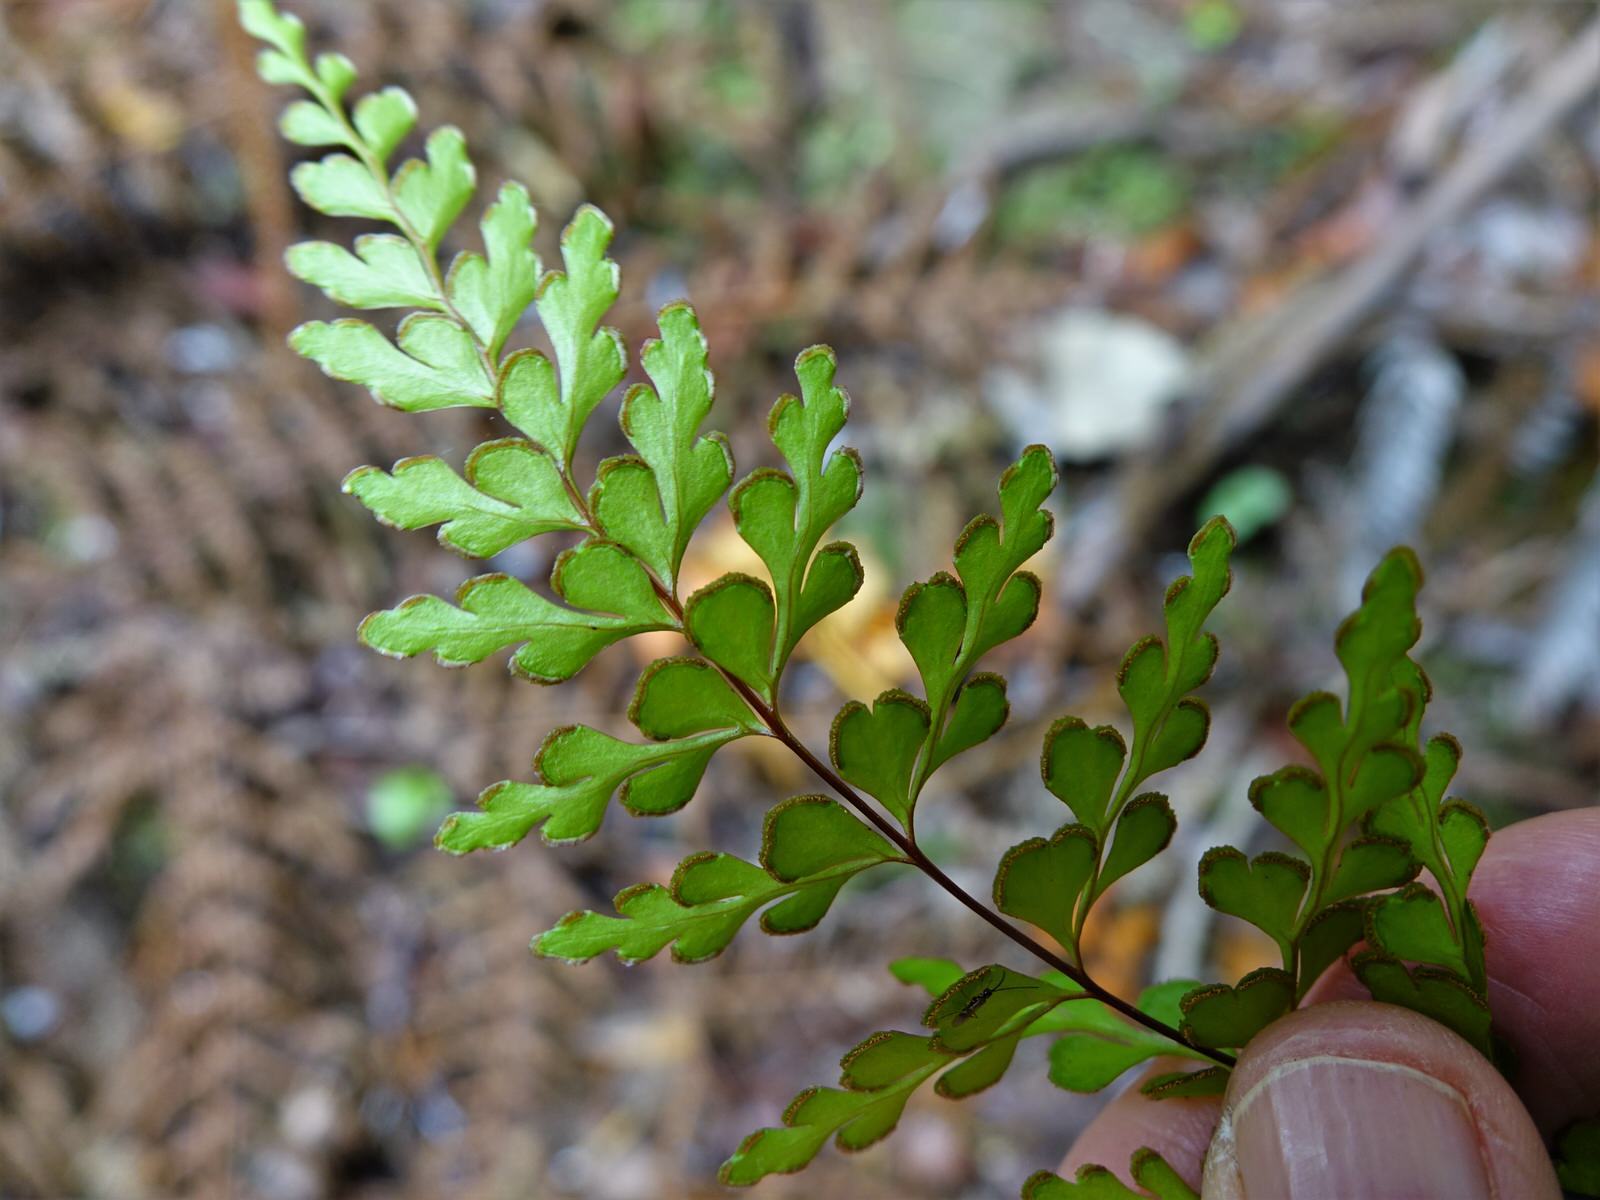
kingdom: Plantae
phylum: Tracheophyta
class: Polypodiopsida
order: Polypodiales
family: Lindsaeaceae
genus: Lindsaea
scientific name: Lindsaea trichomanoides
